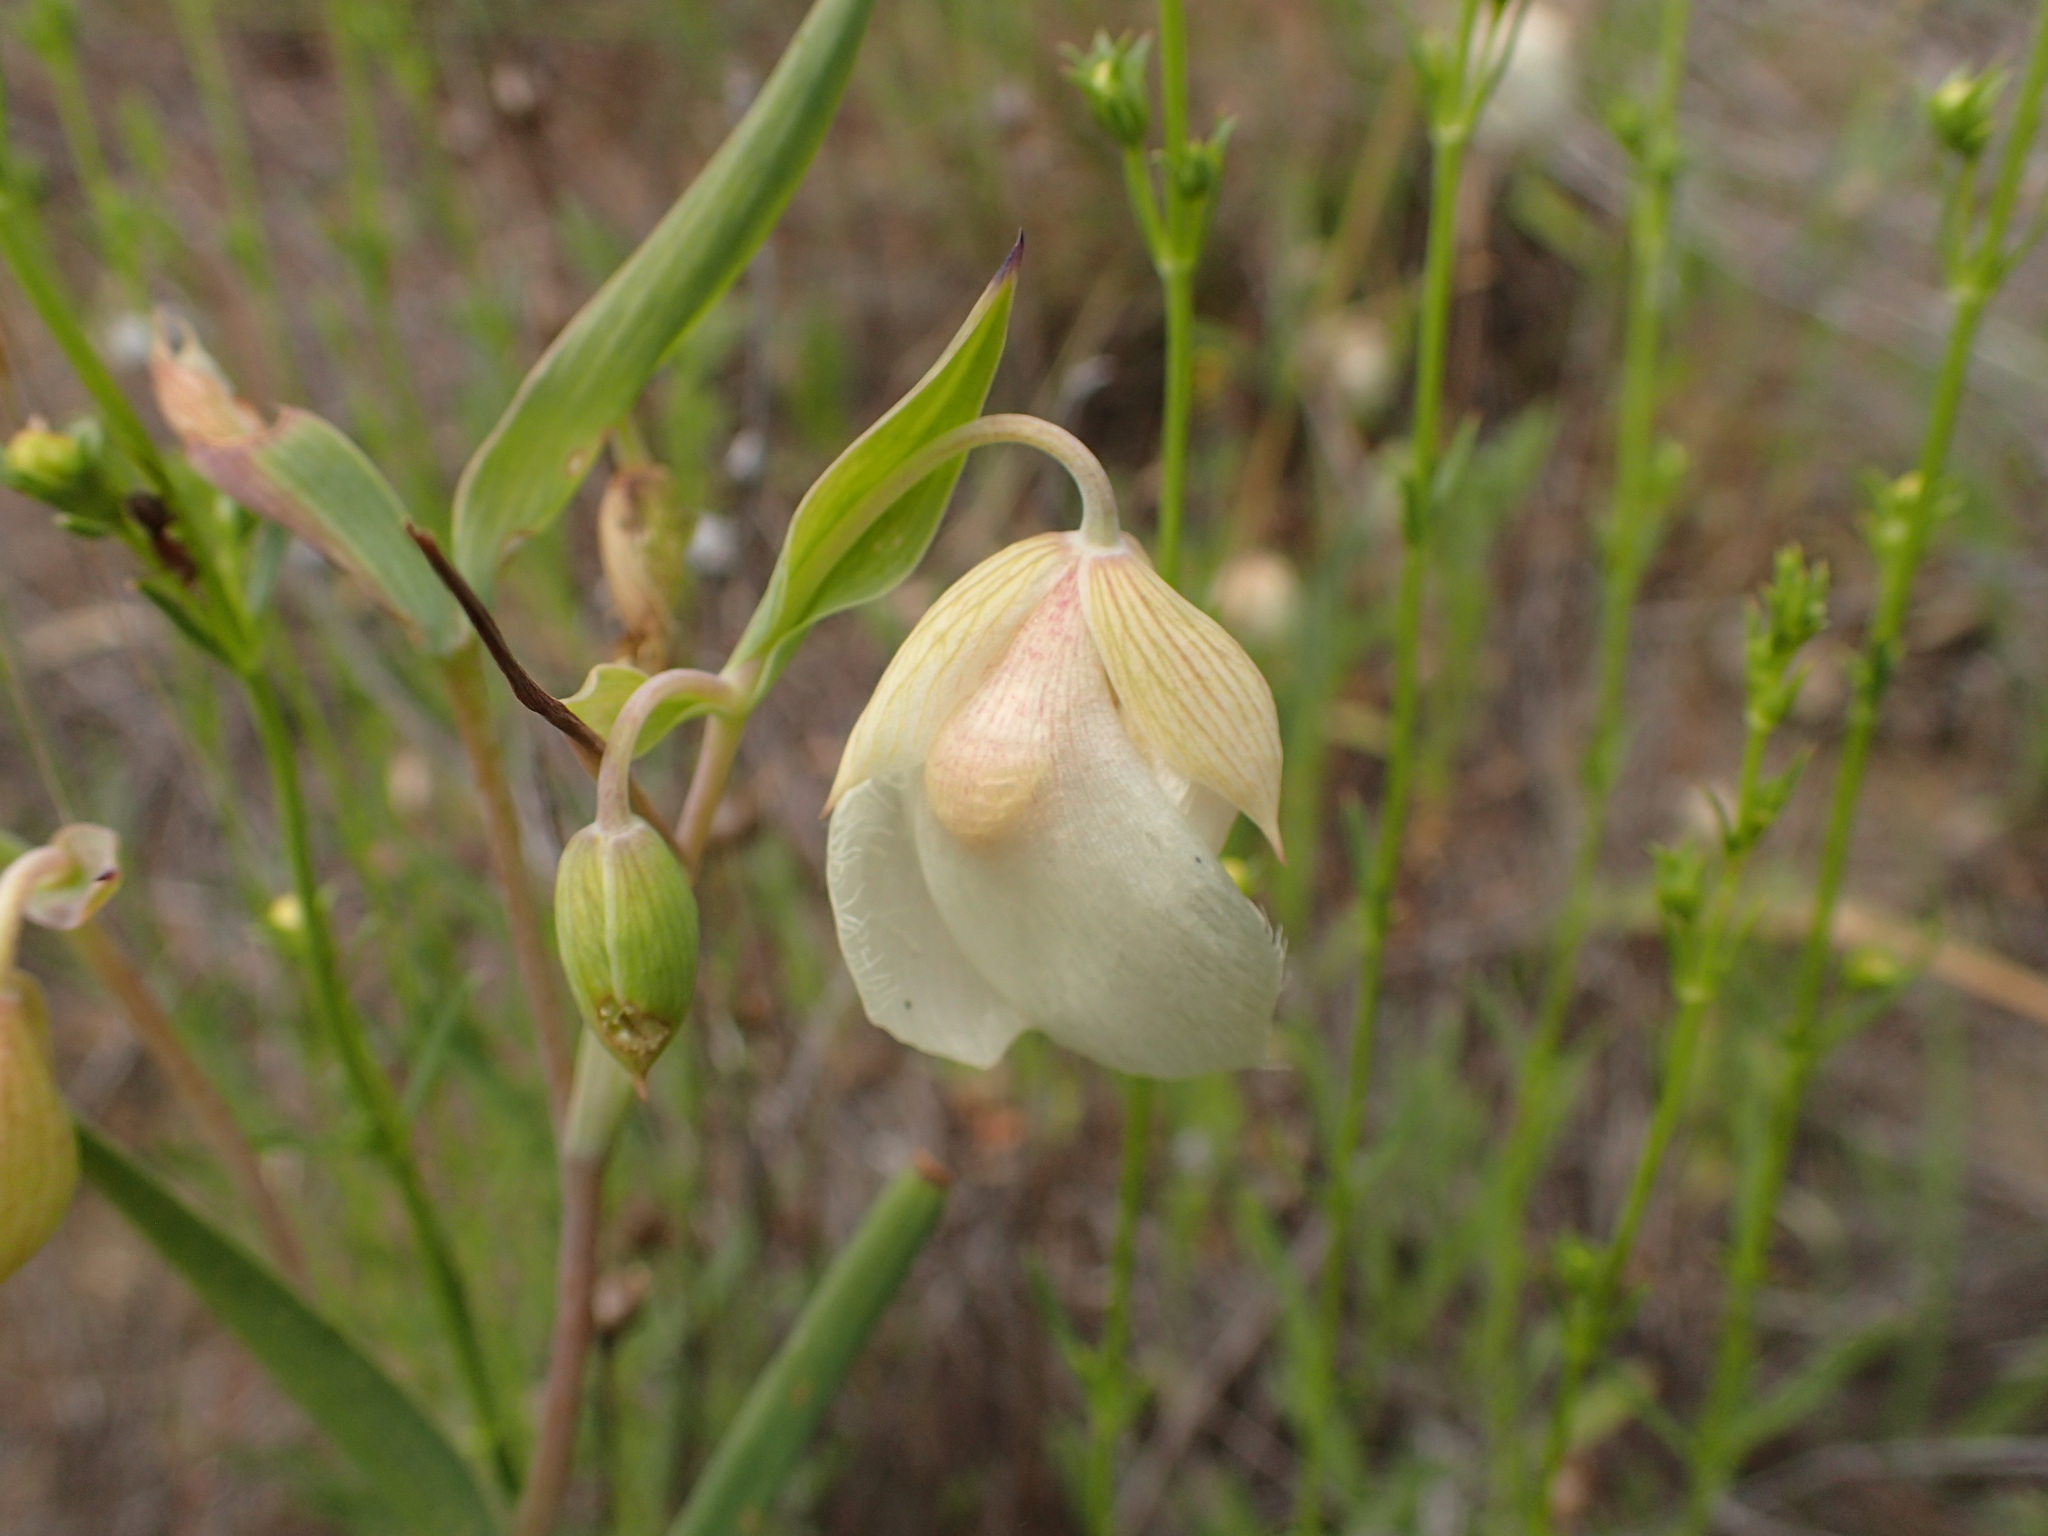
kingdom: Plantae
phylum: Tracheophyta
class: Liliopsida
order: Liliales
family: Liliaceae
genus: Calochortus
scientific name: Calochortus albus
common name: Fairy-lantern
